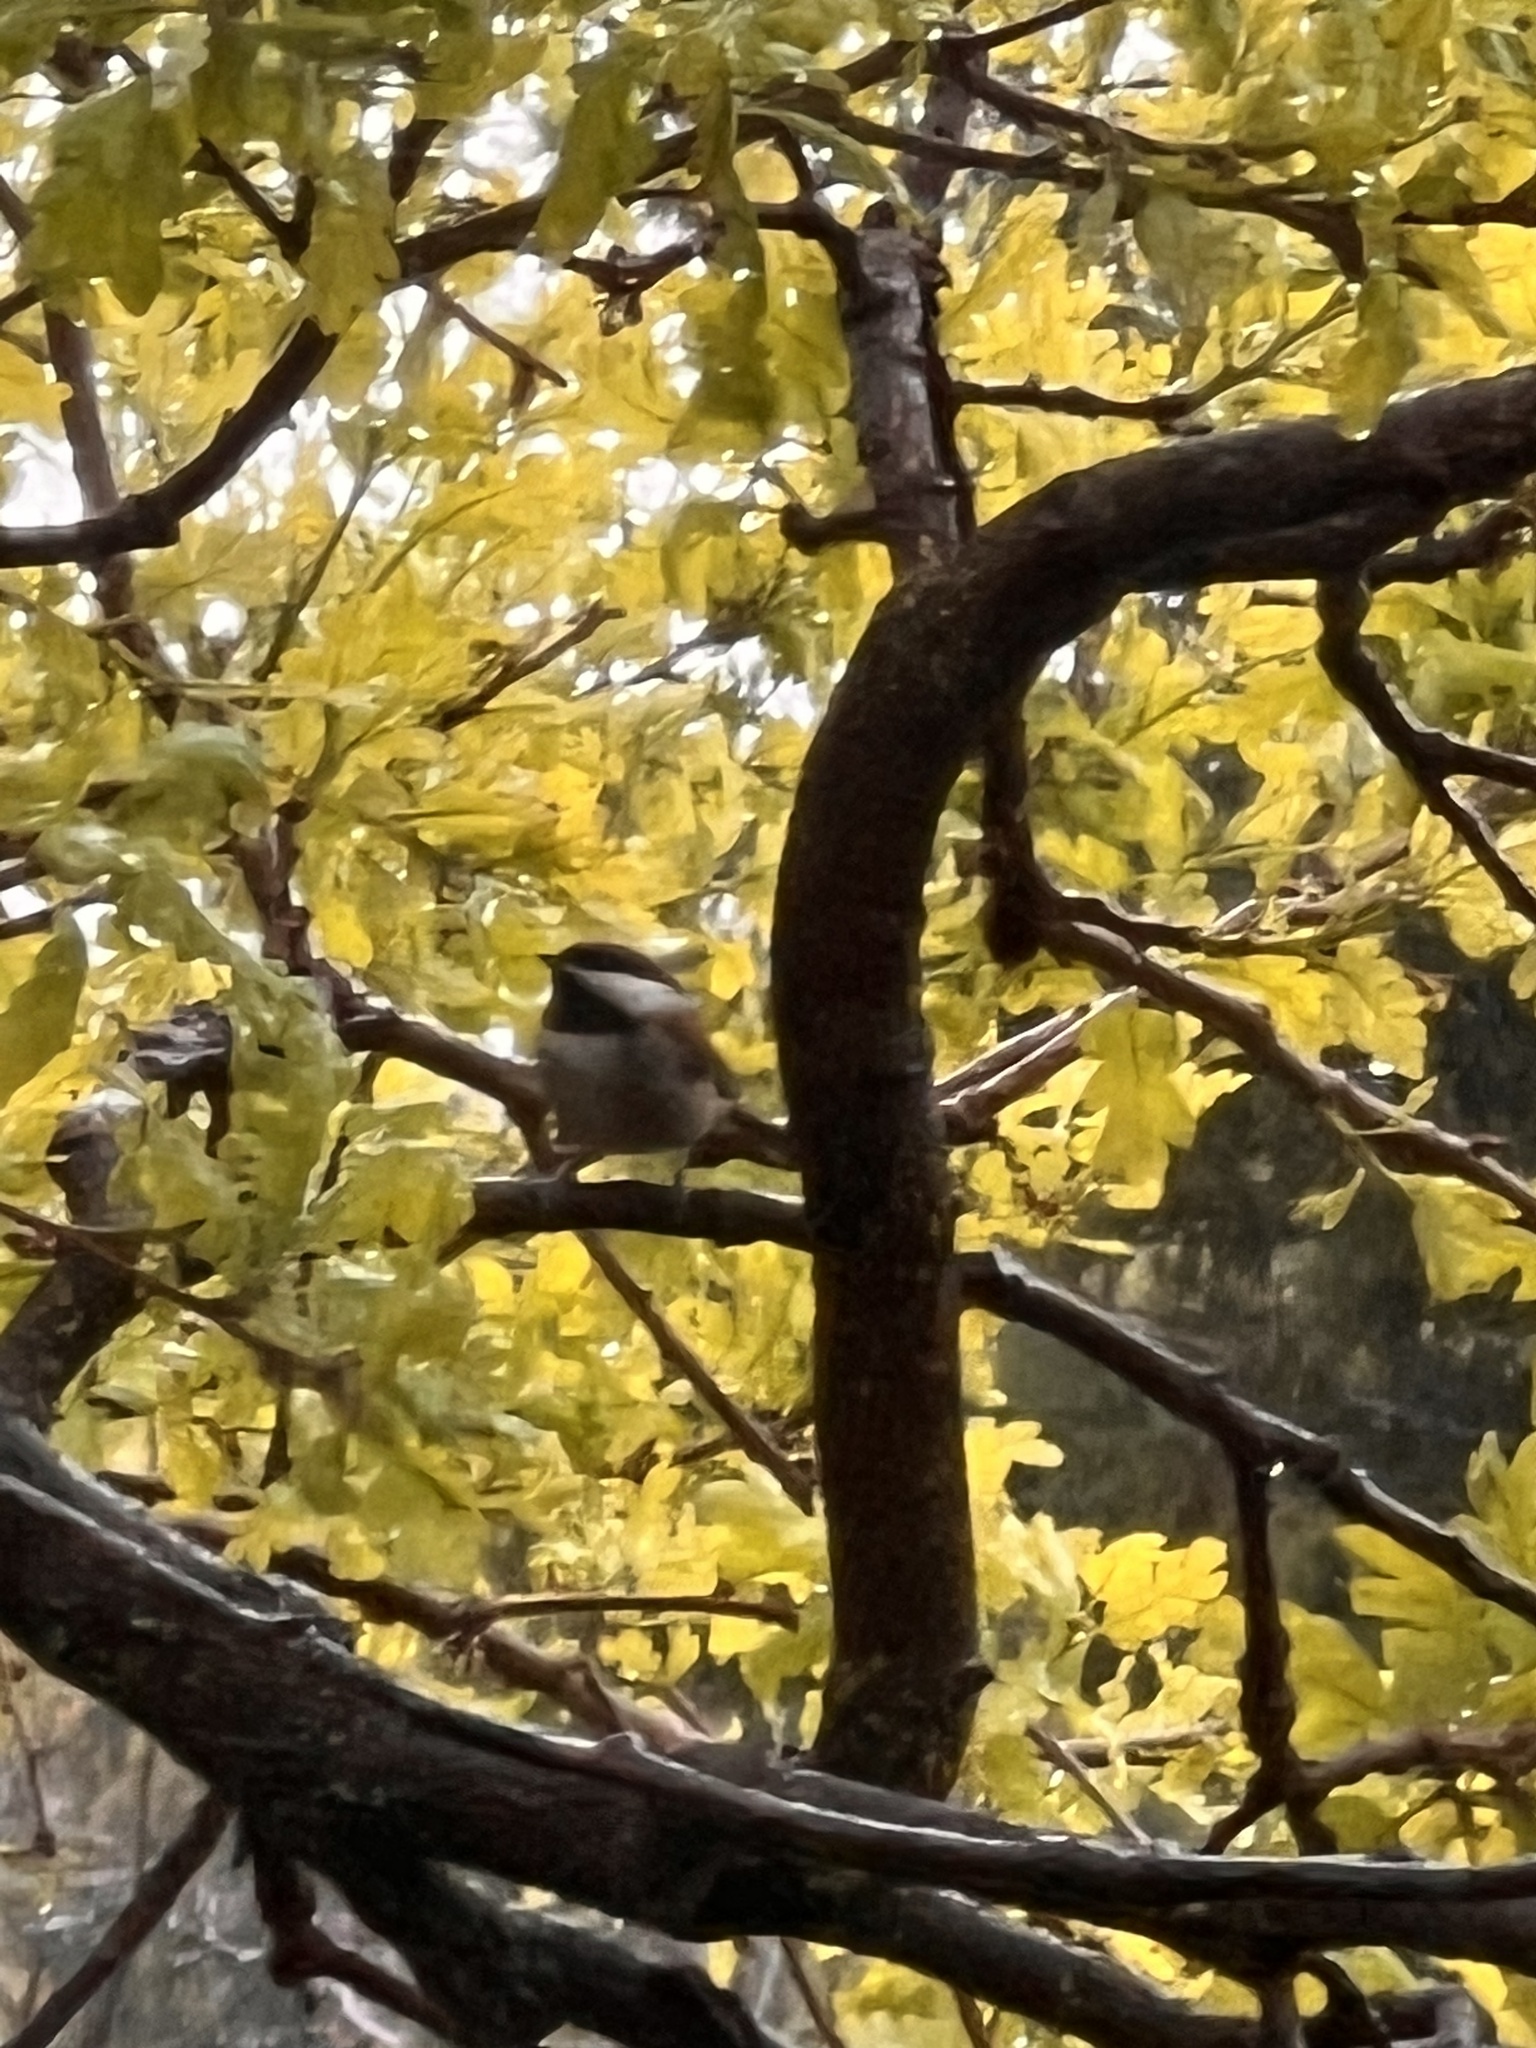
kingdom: Animalia
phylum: Chordata
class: Aves
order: Passeriformes
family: Paridae
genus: Poecile
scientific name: Poecile rufescens
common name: Chestnut-backed chickadee
